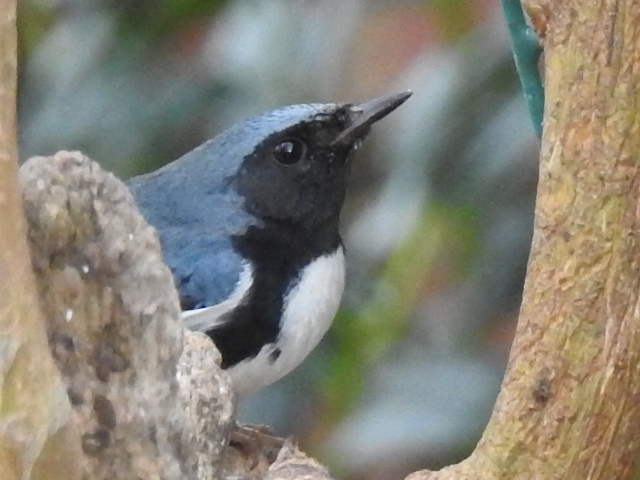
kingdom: Animalia
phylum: Chordata
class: Aves
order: Passeriformes
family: Parulidae
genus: Setophaga
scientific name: Setophaga caerulescens
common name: Black-throated blue warbler
